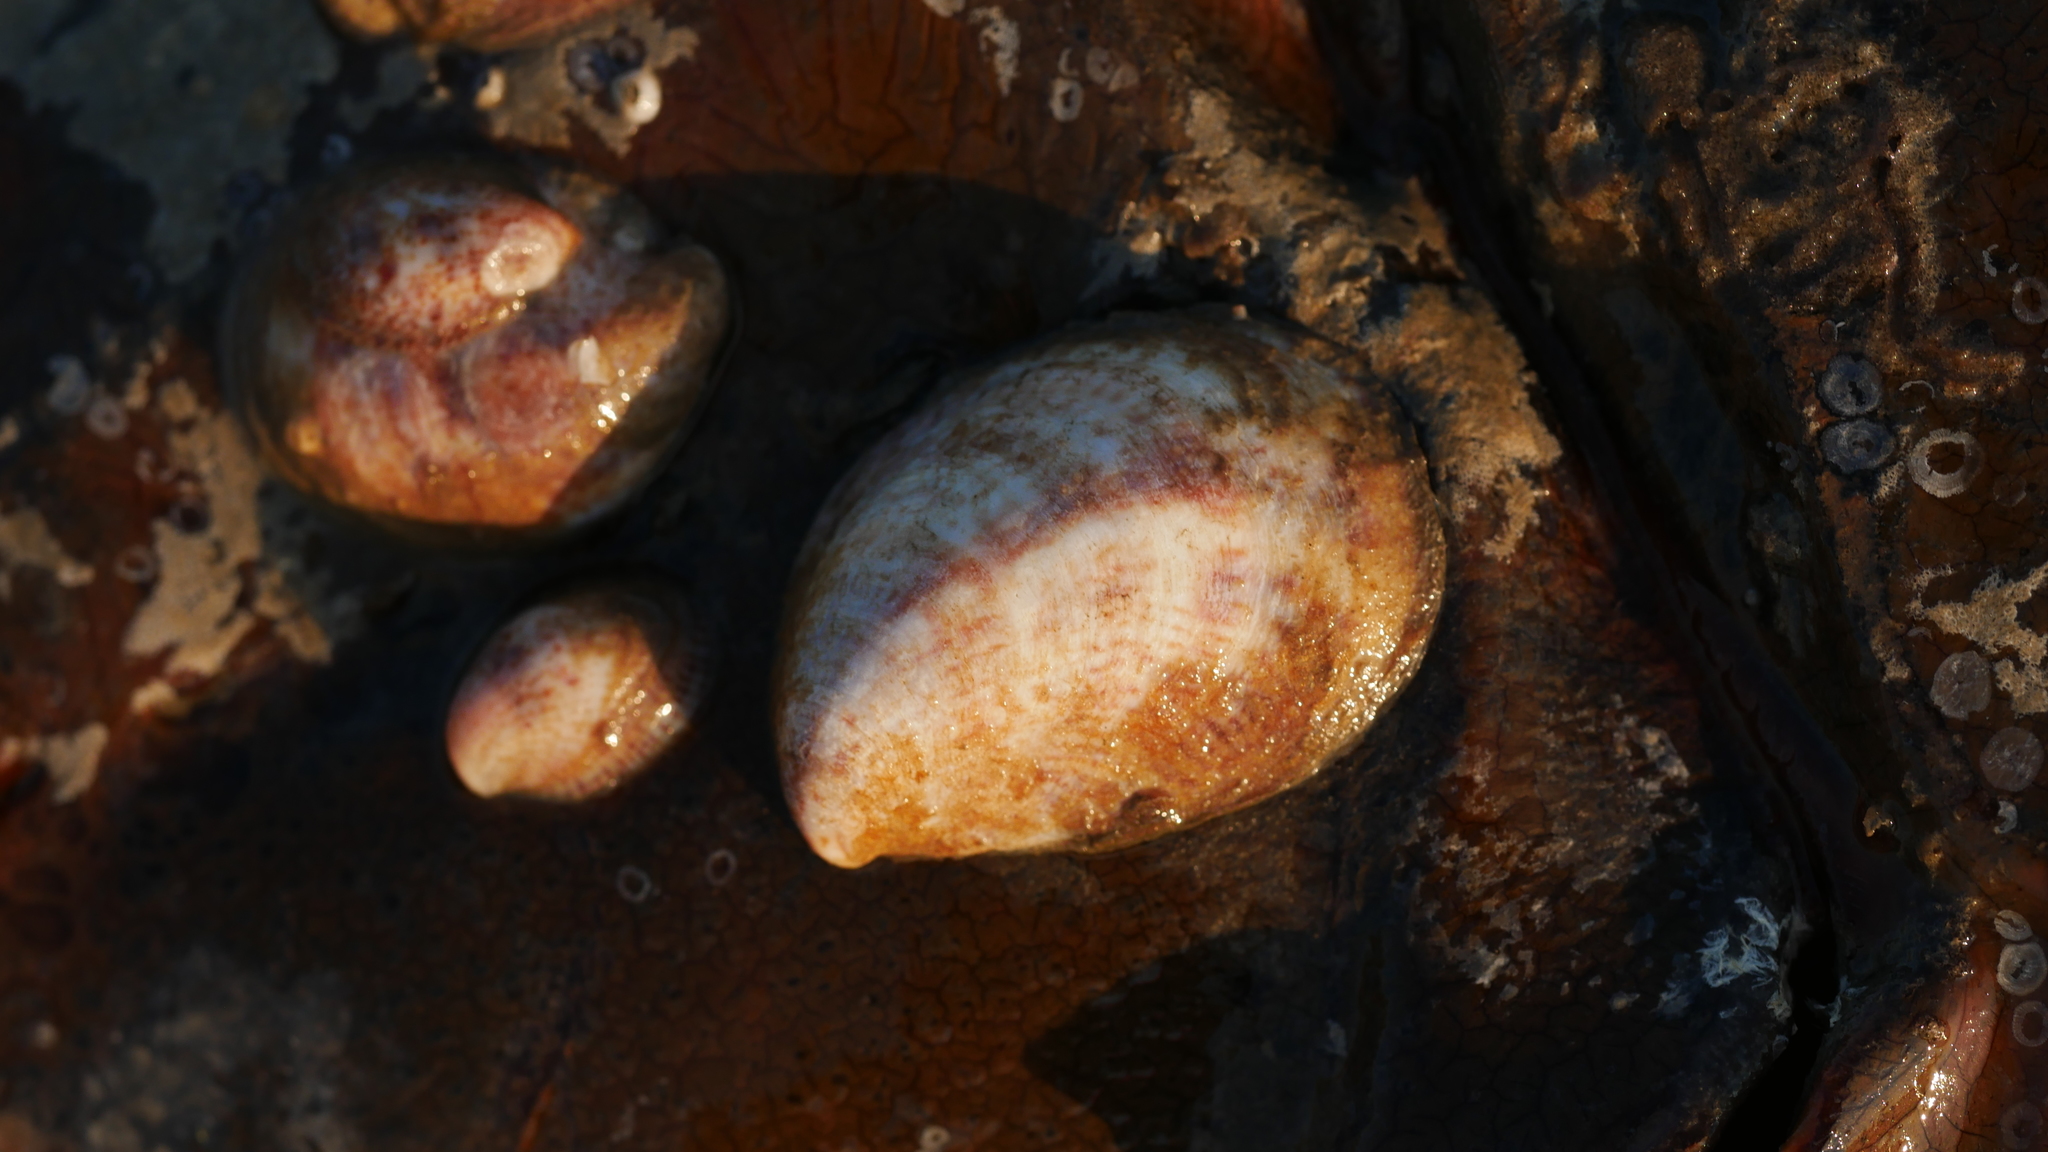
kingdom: Animalia
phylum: Mollusca
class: Gastropoda
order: Littorinimorpha
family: Calyptraeidae
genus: Crepidula
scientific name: Crepidula fornicata
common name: Slipper limpet
